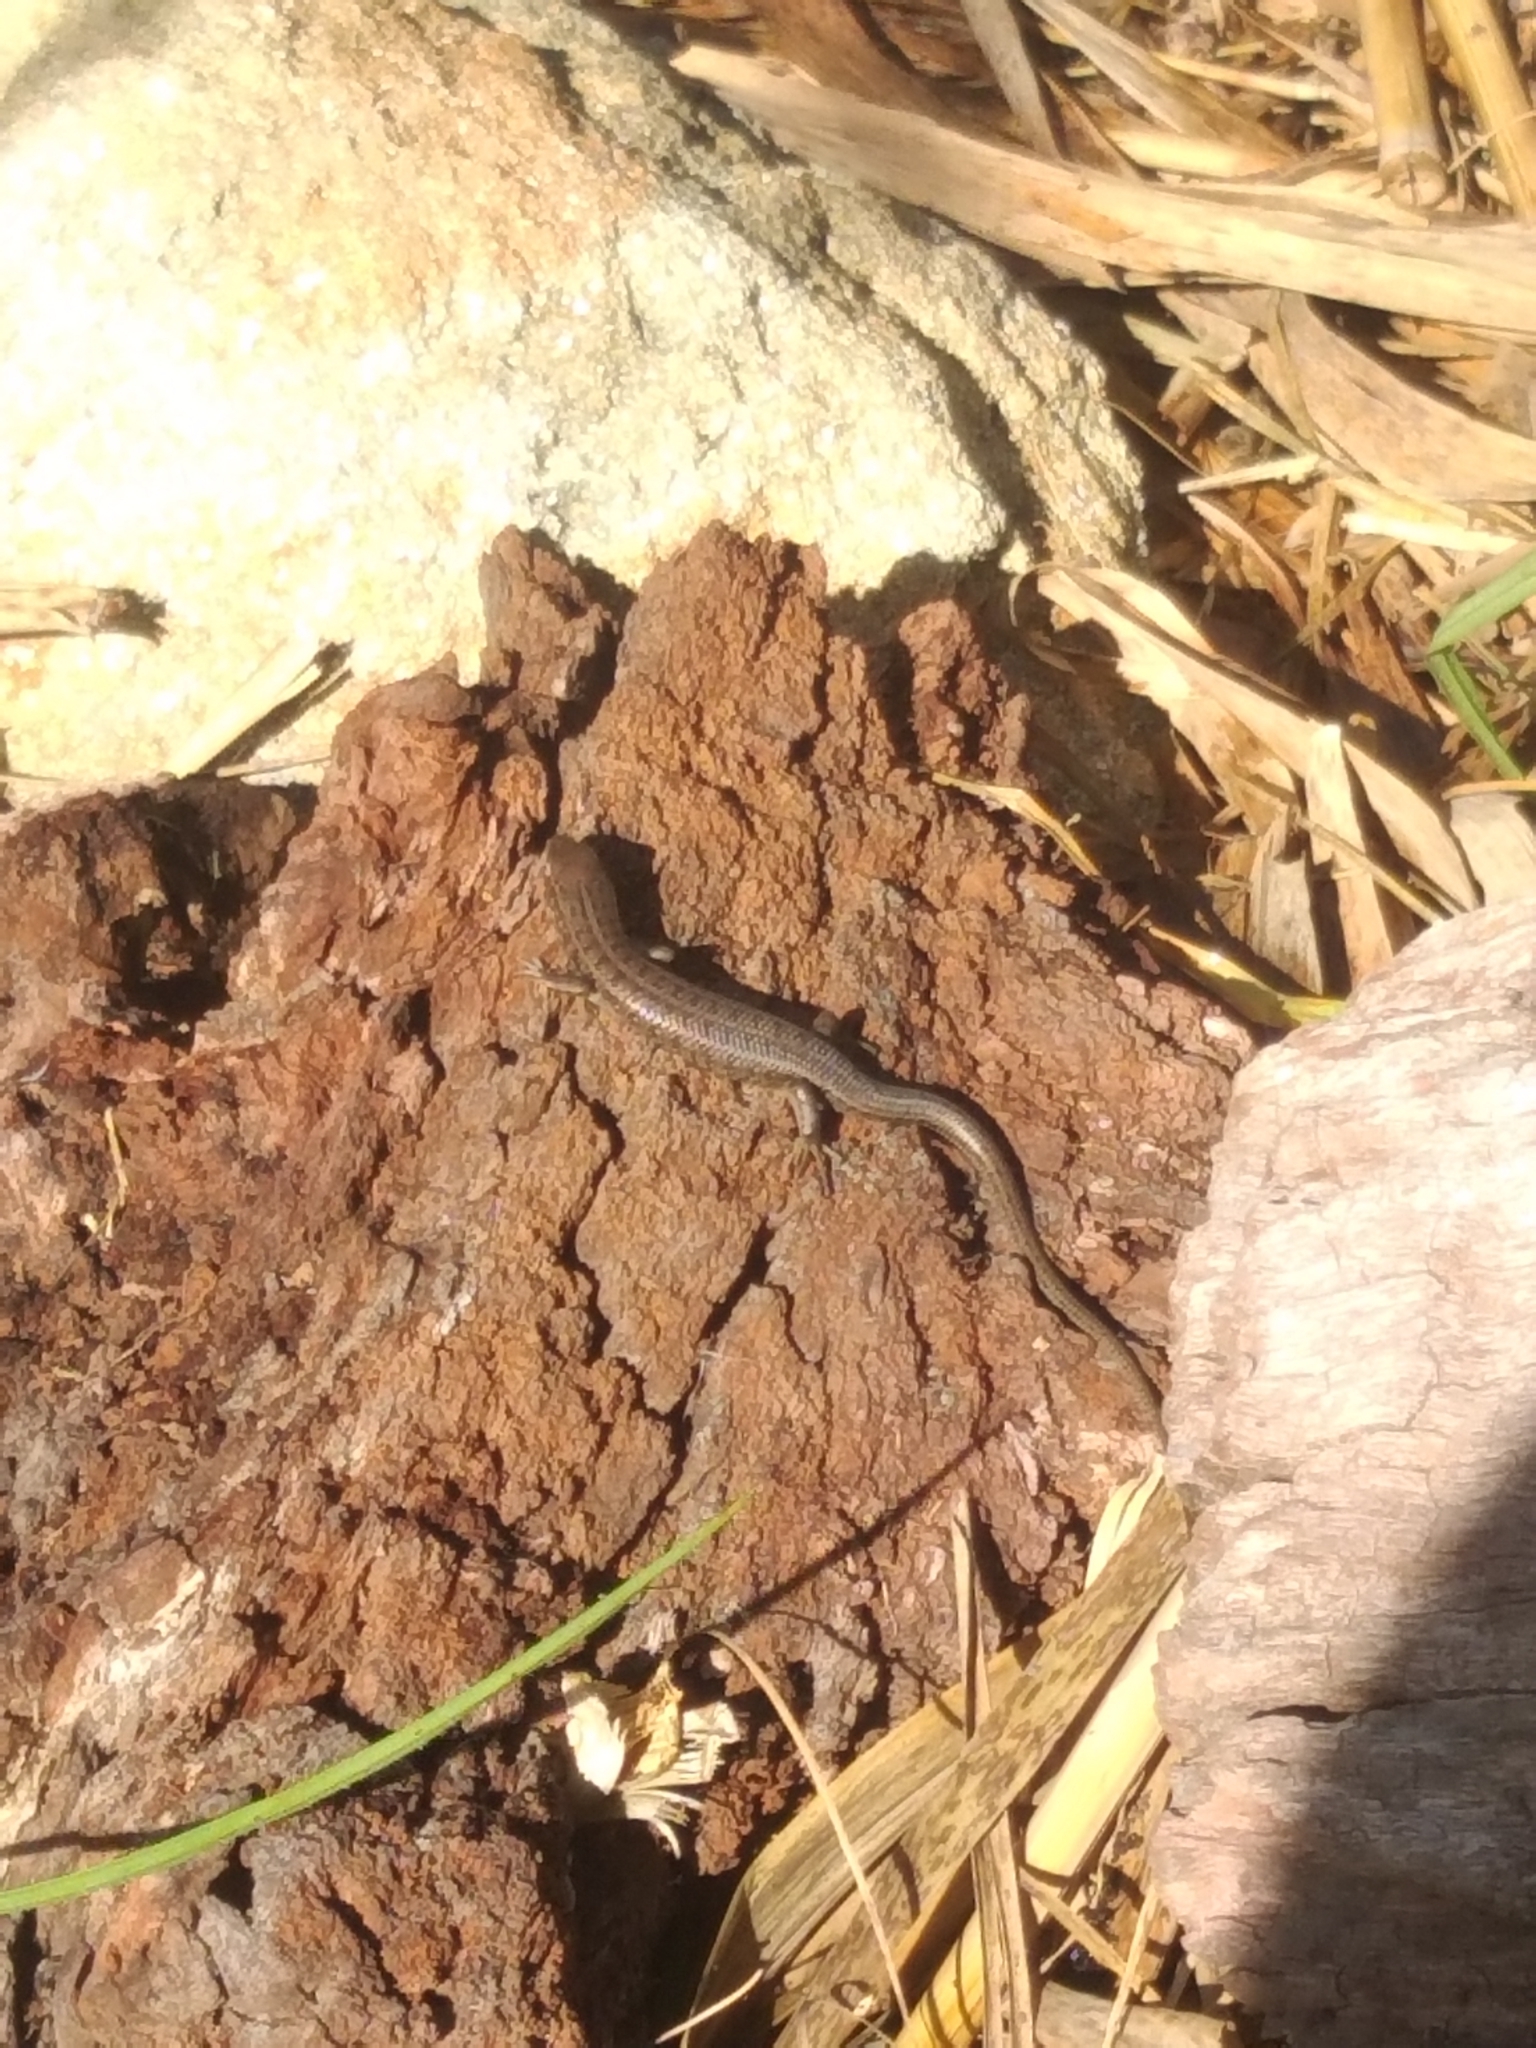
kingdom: Animalia
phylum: Chordata
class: Squamata
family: Scincidae
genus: Trachylepis
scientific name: Trachylepis capensis
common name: Cape skink
